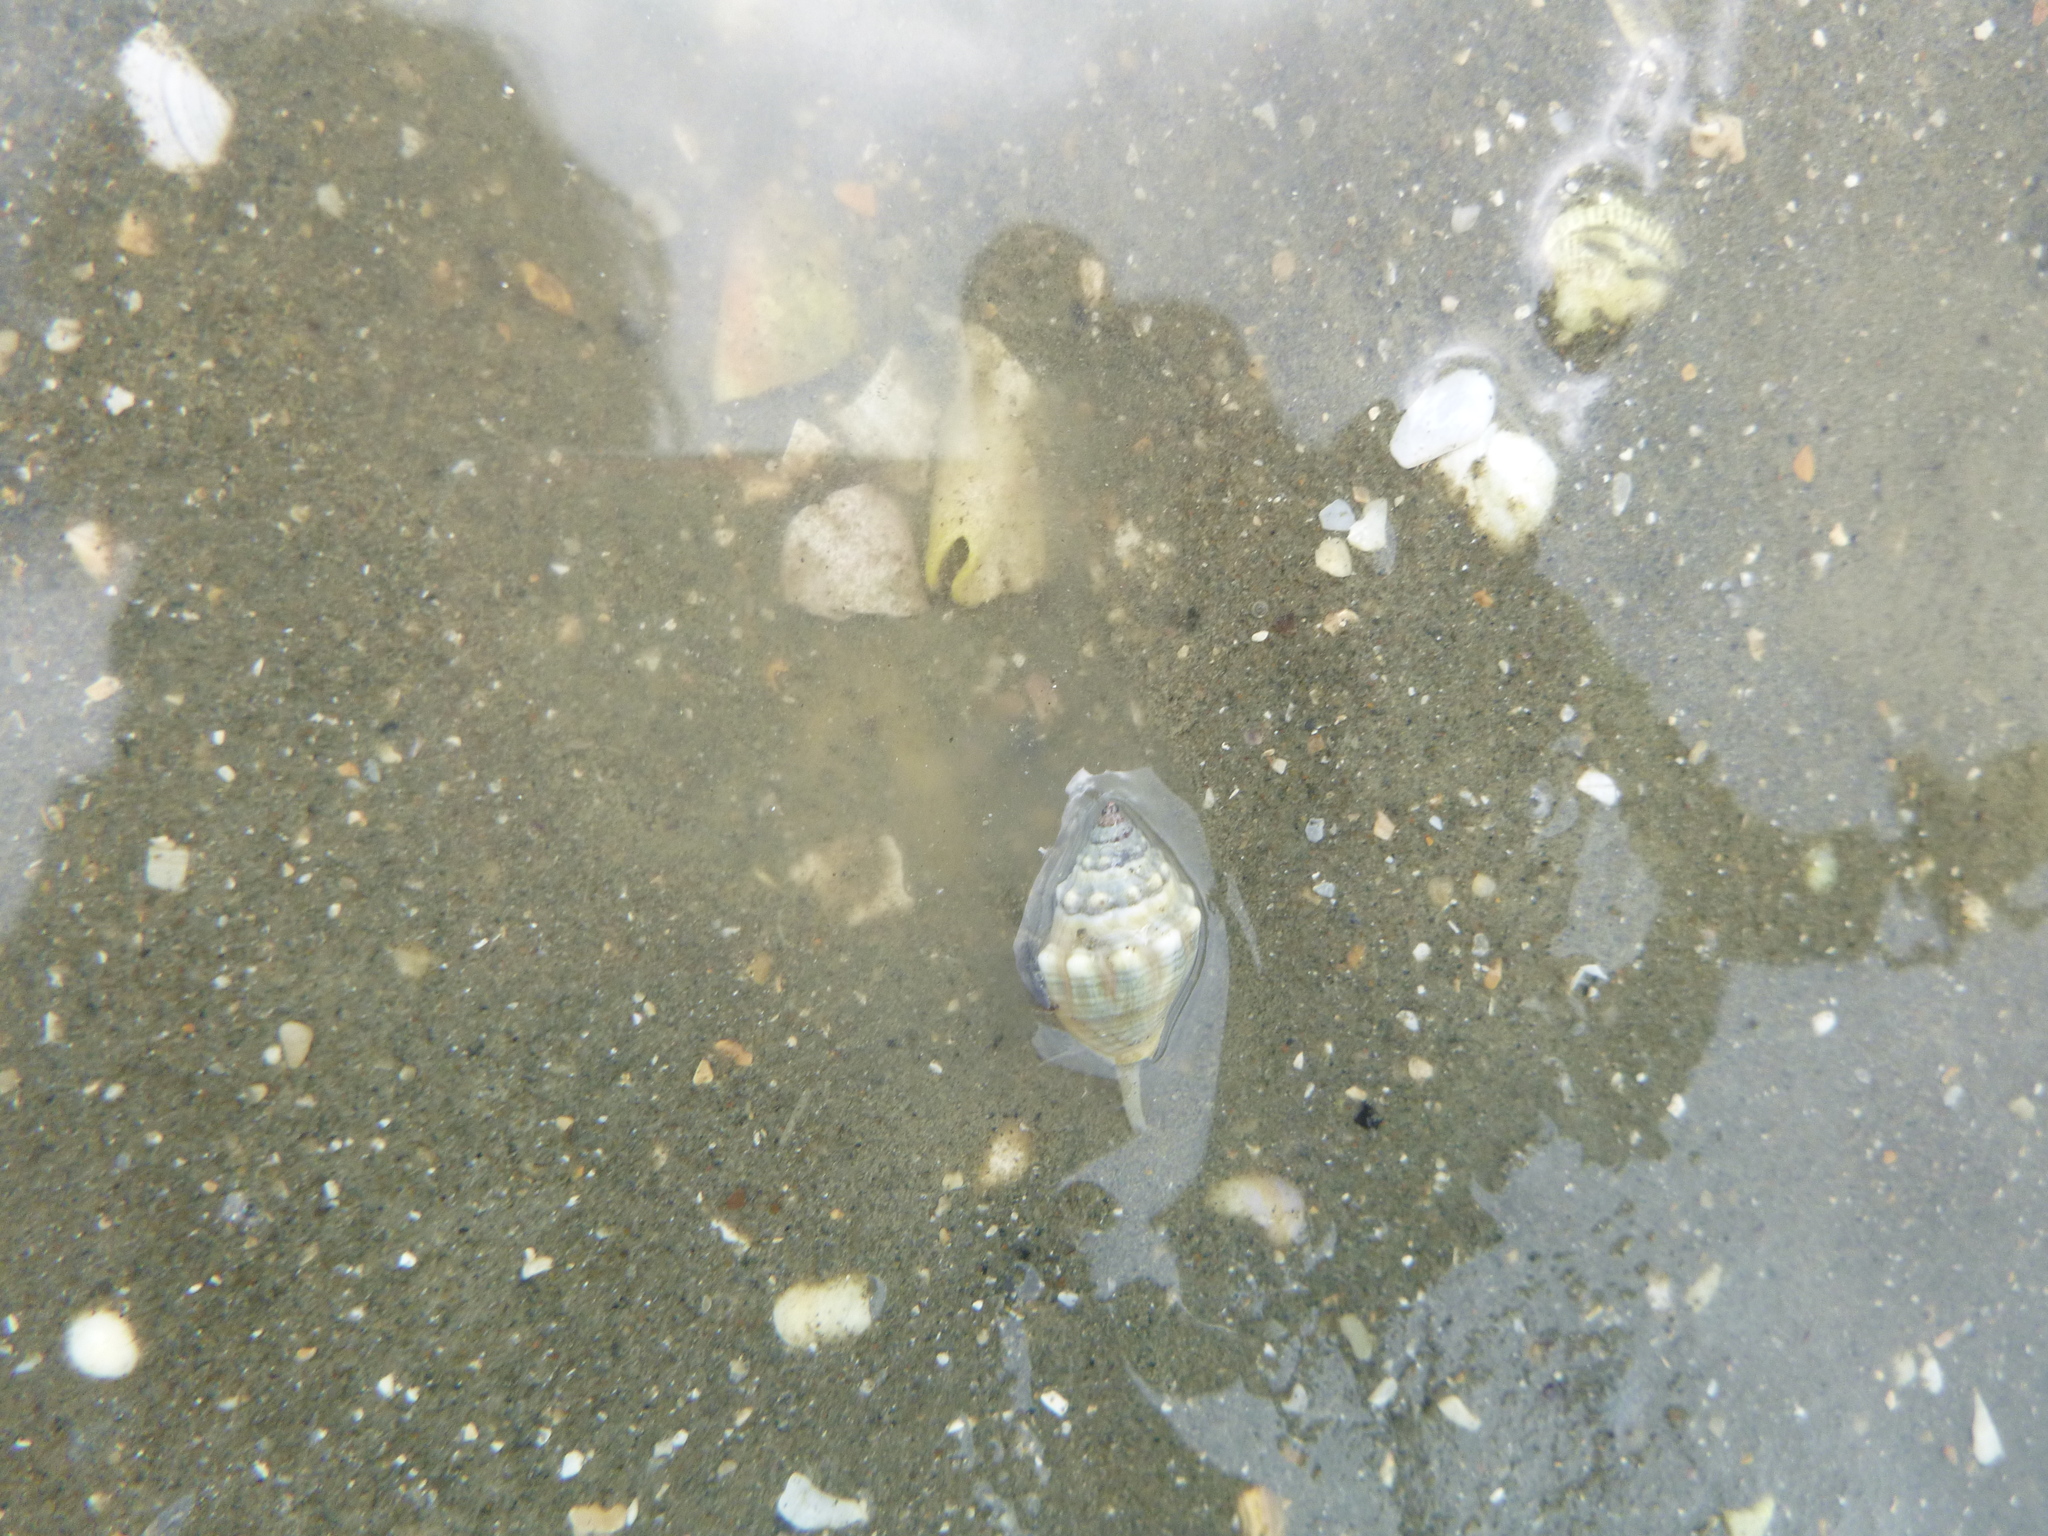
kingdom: Animalia
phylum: Mollusca
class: Gastropoda
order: Neogastropoda
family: Cominellidae
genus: Cominella
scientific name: Cominella glandiformis
